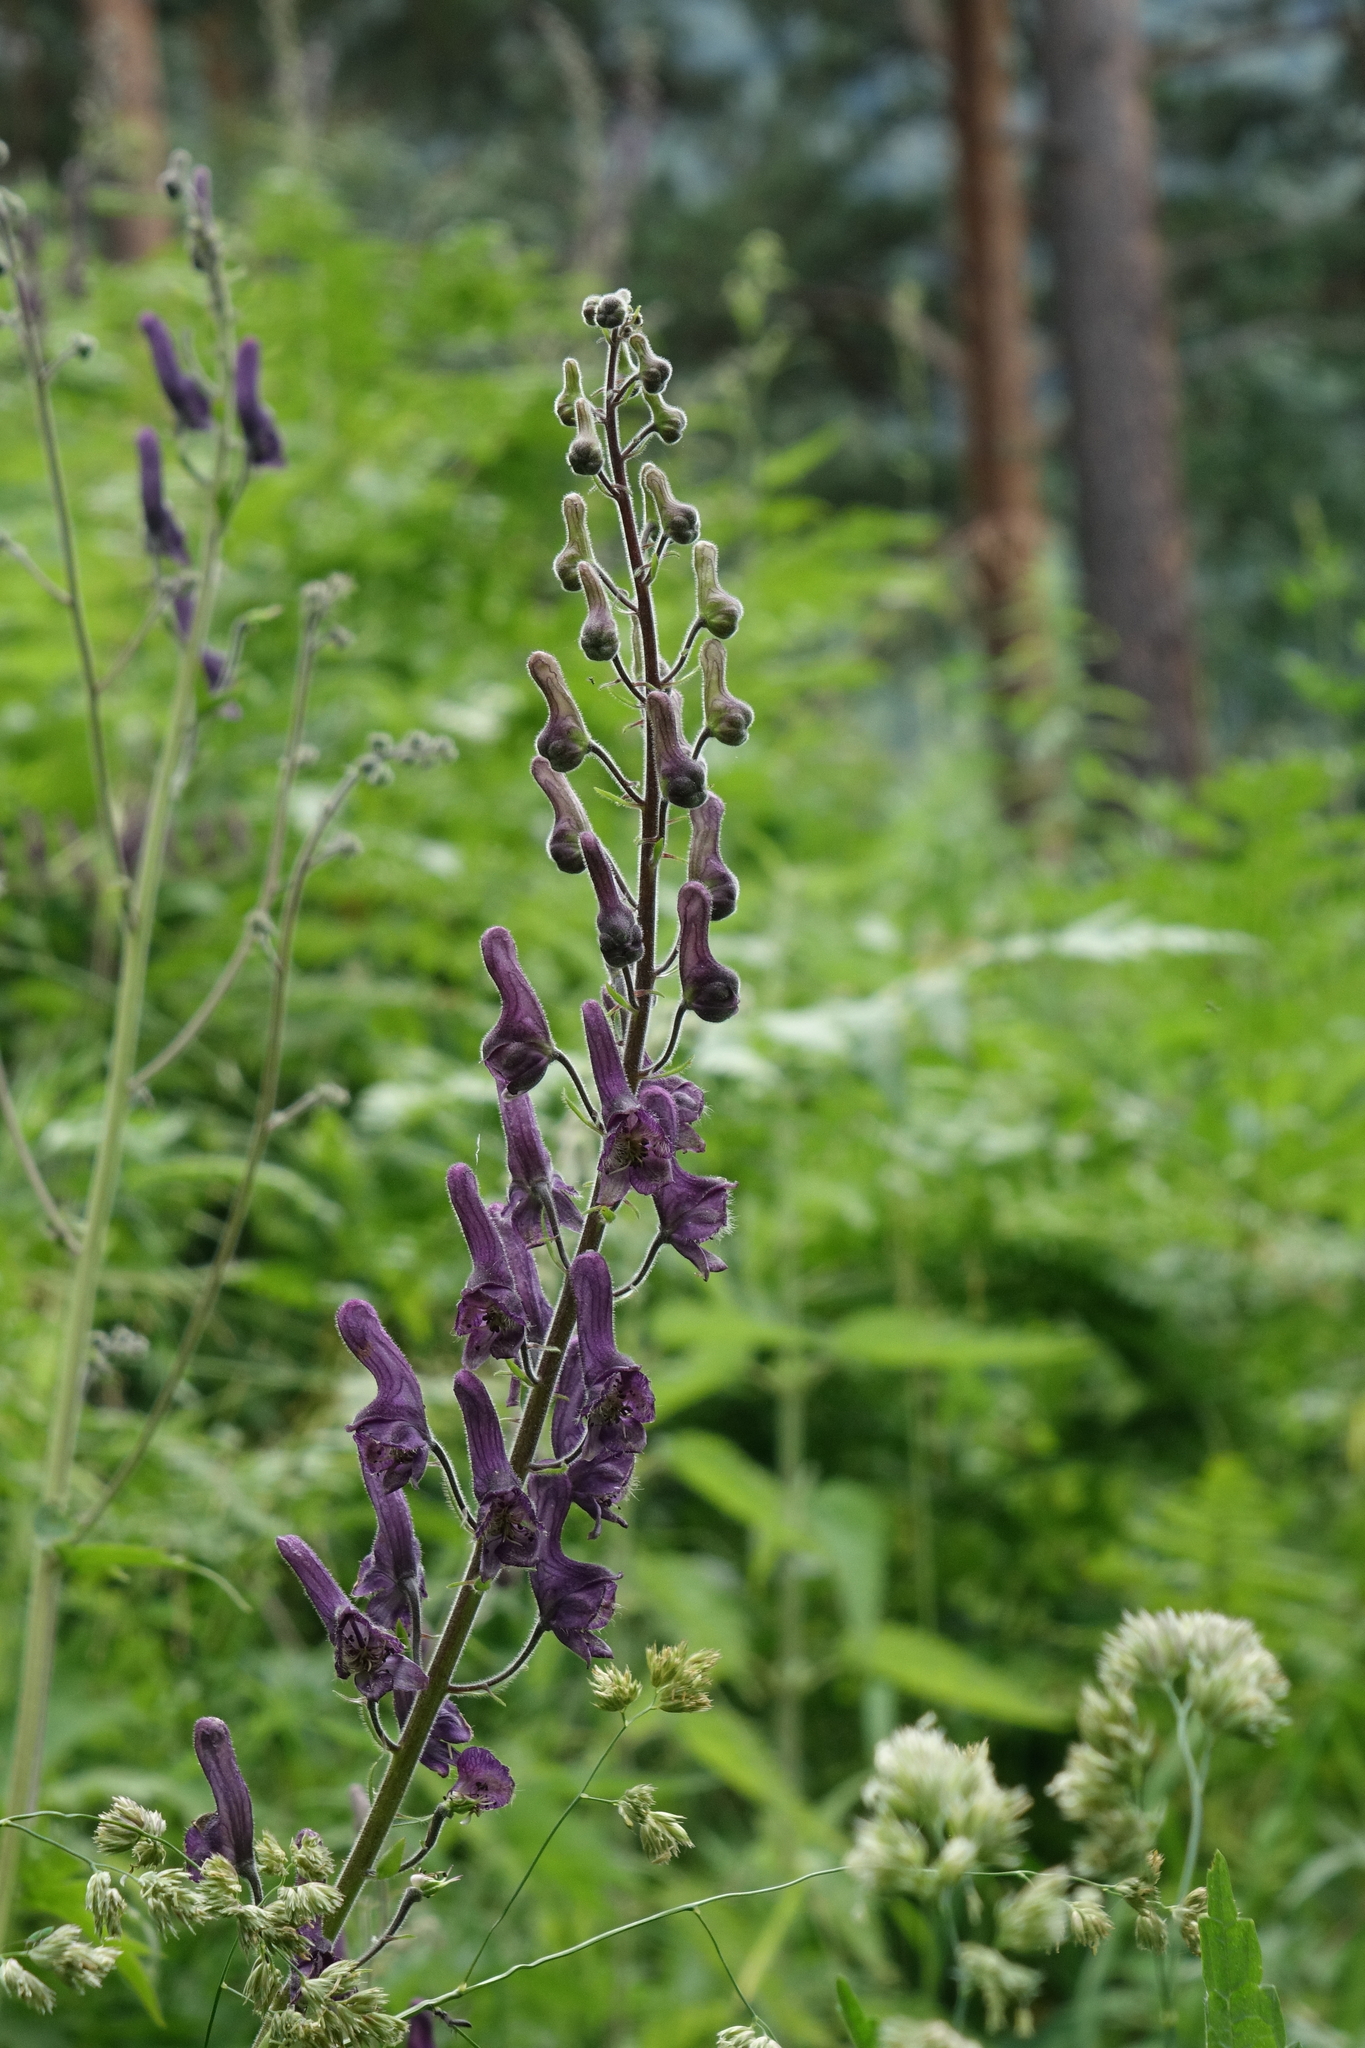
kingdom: Plantae
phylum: Tracheophyta
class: Magnoliopsida
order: Ranunculales
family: Ranunculaceae
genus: Aconitum
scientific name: Aconitum septentrionale
